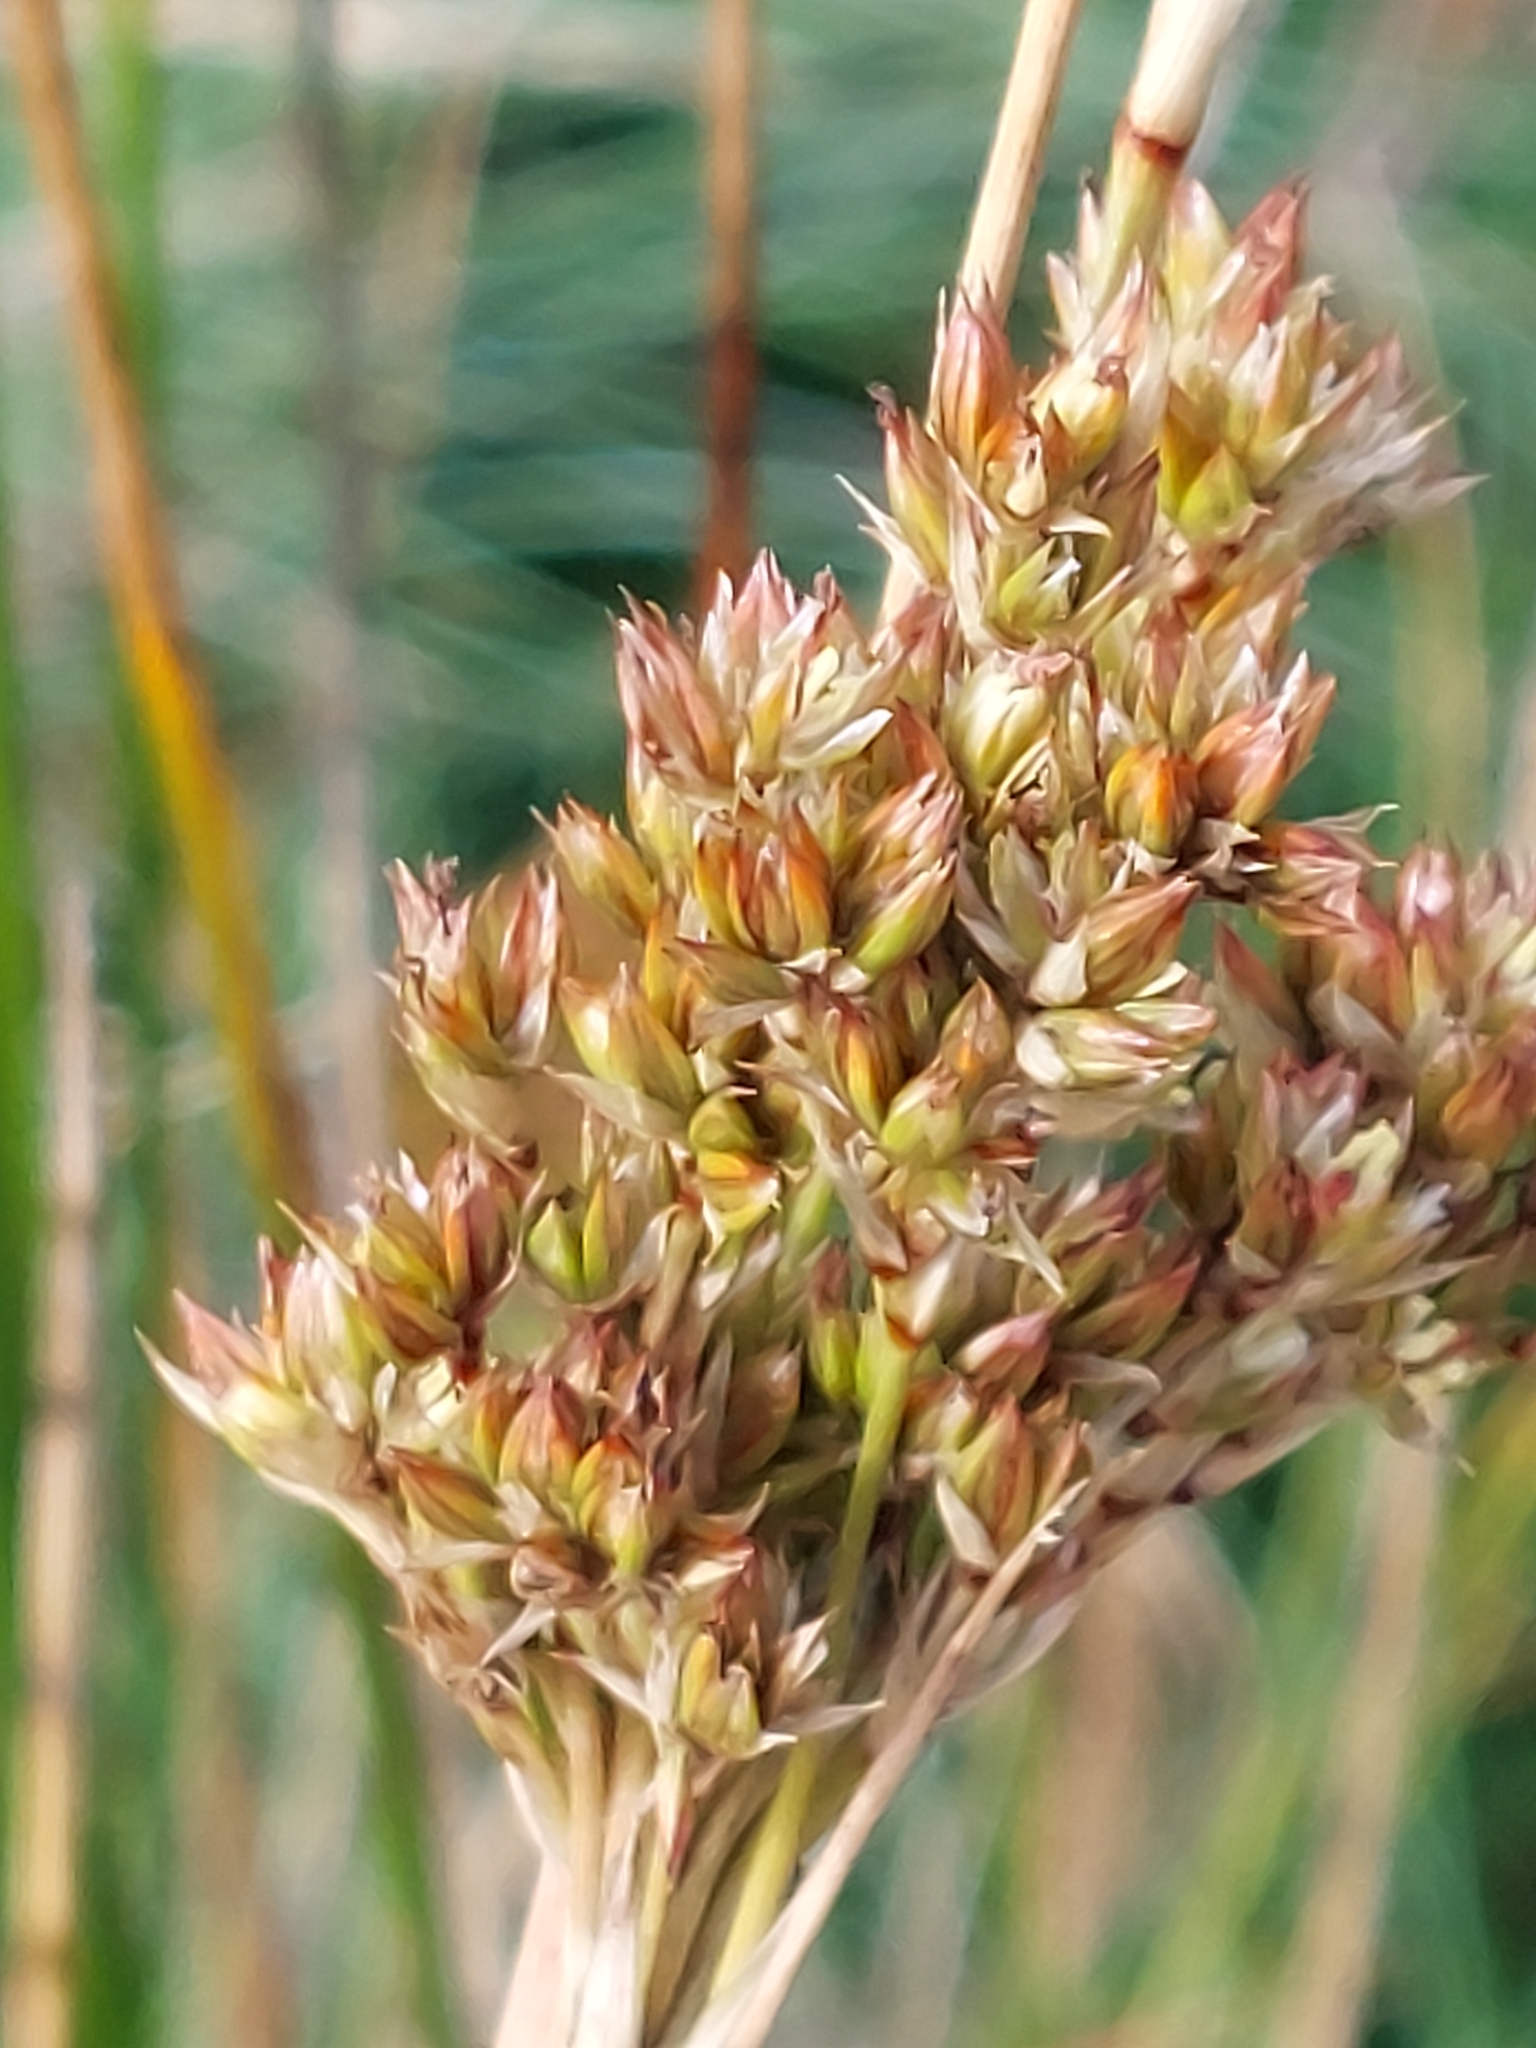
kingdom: Plantae
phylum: Tracheophyta
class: Liliopsida
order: Poales
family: Juncaceae
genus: Juncus
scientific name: Juncus maritimus
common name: Sea rush
